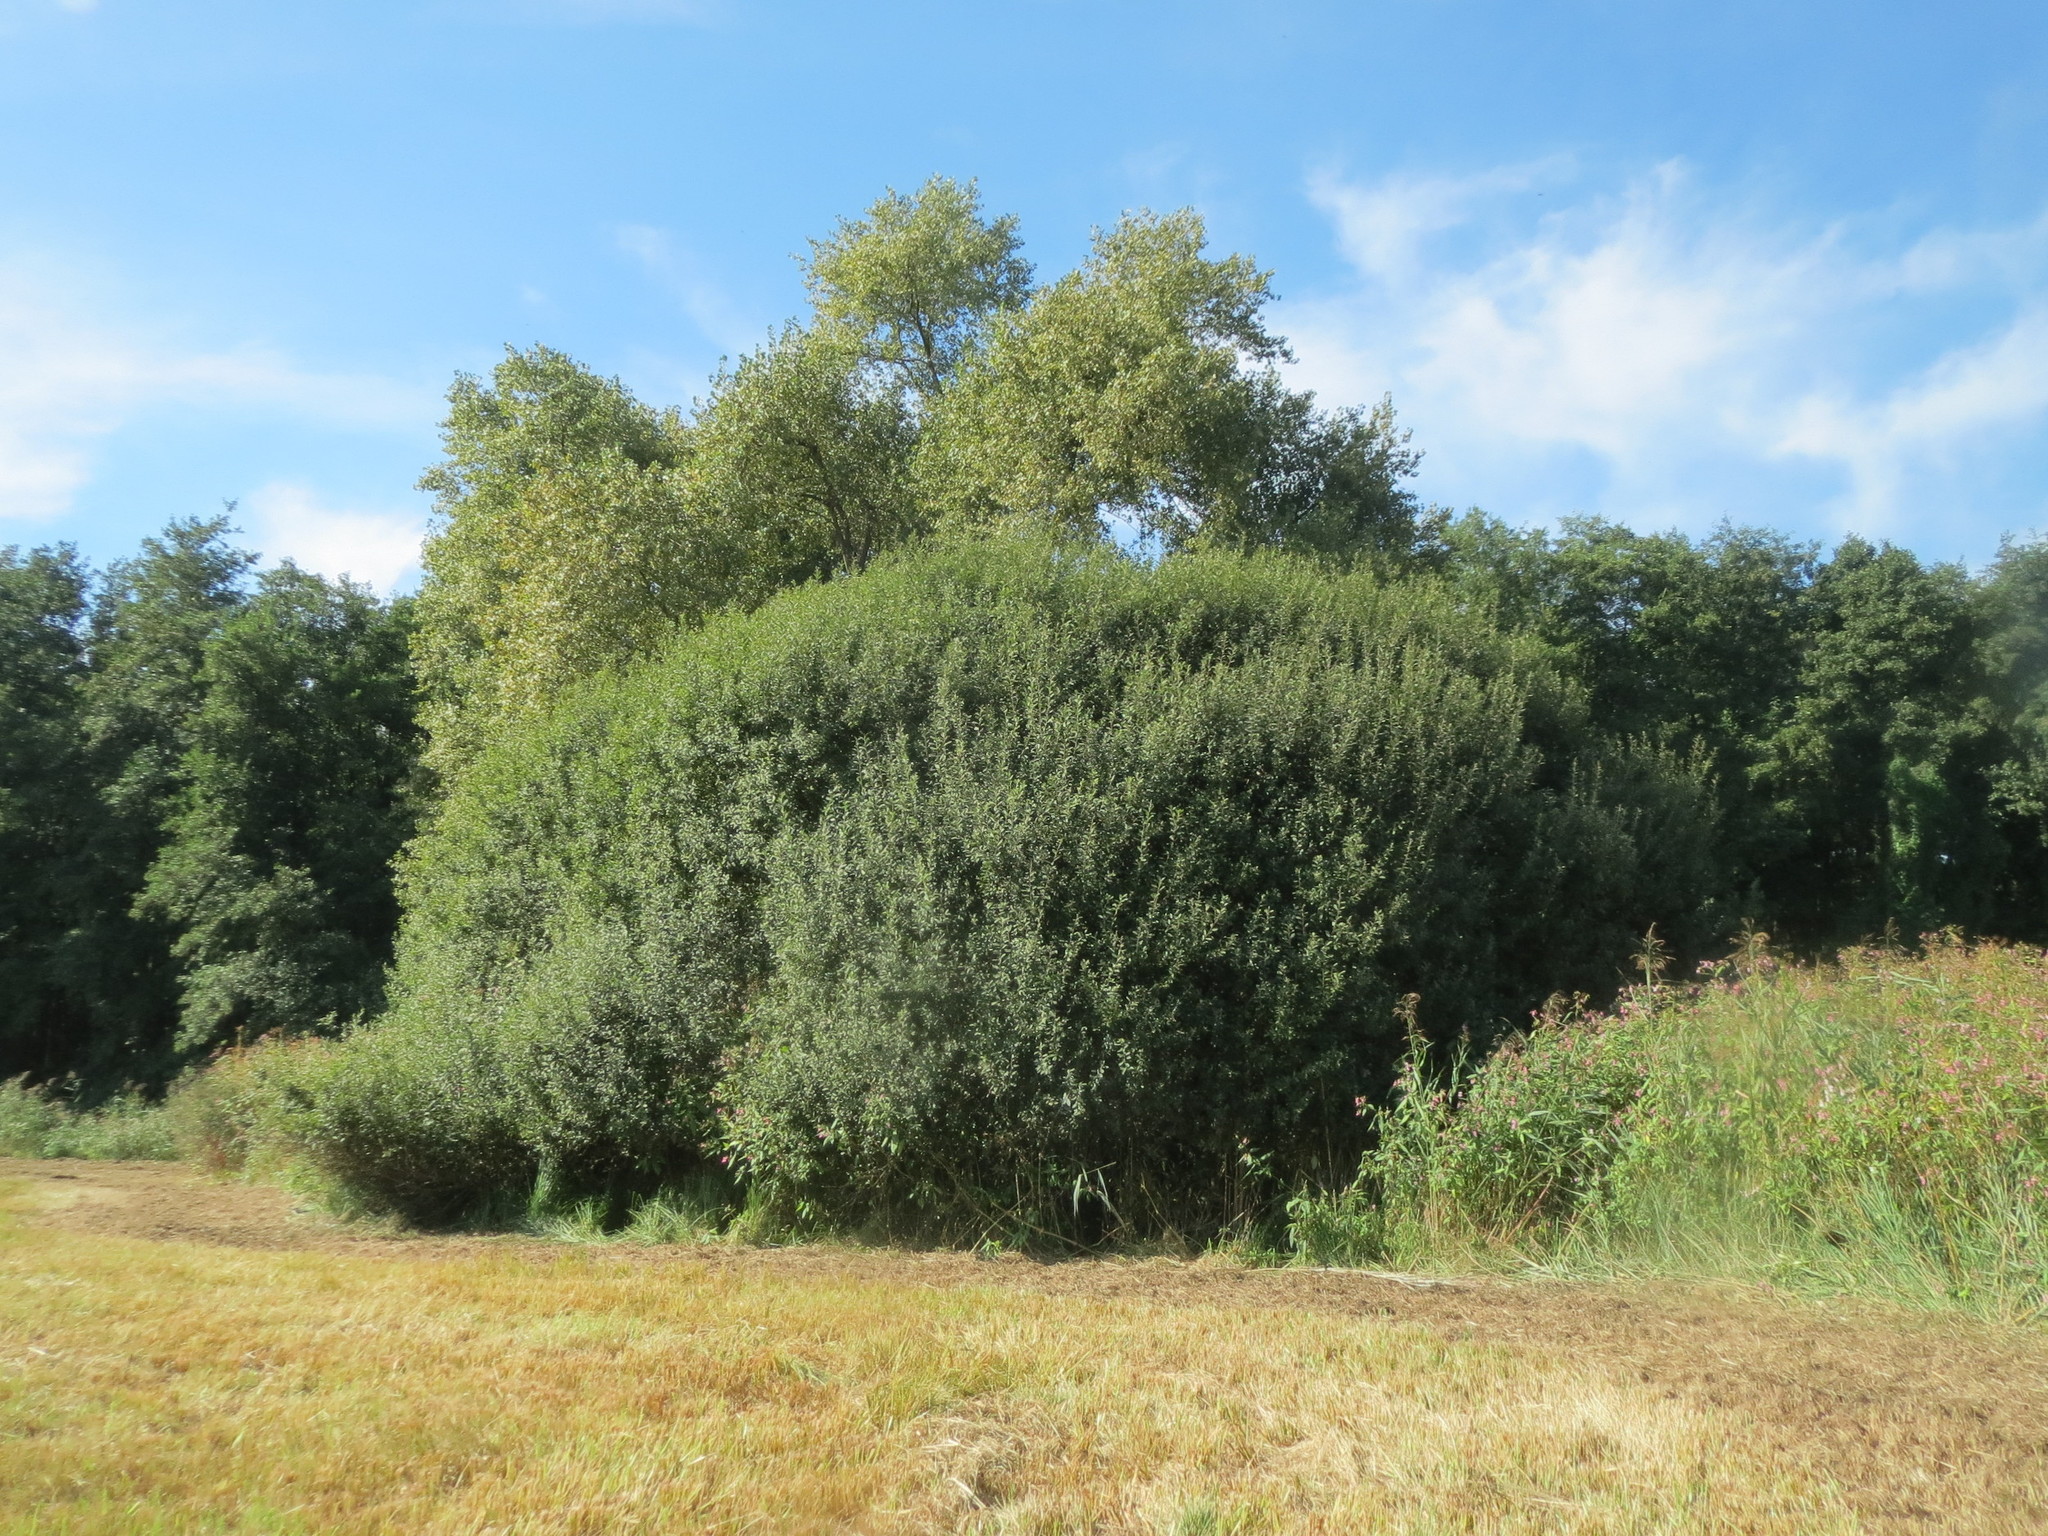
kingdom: Plantae
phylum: Tracheophyta
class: Magnoliopsida
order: Malpighiales
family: Salicaceae
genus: Salix
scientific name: Salix purpurea
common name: Purple willow
